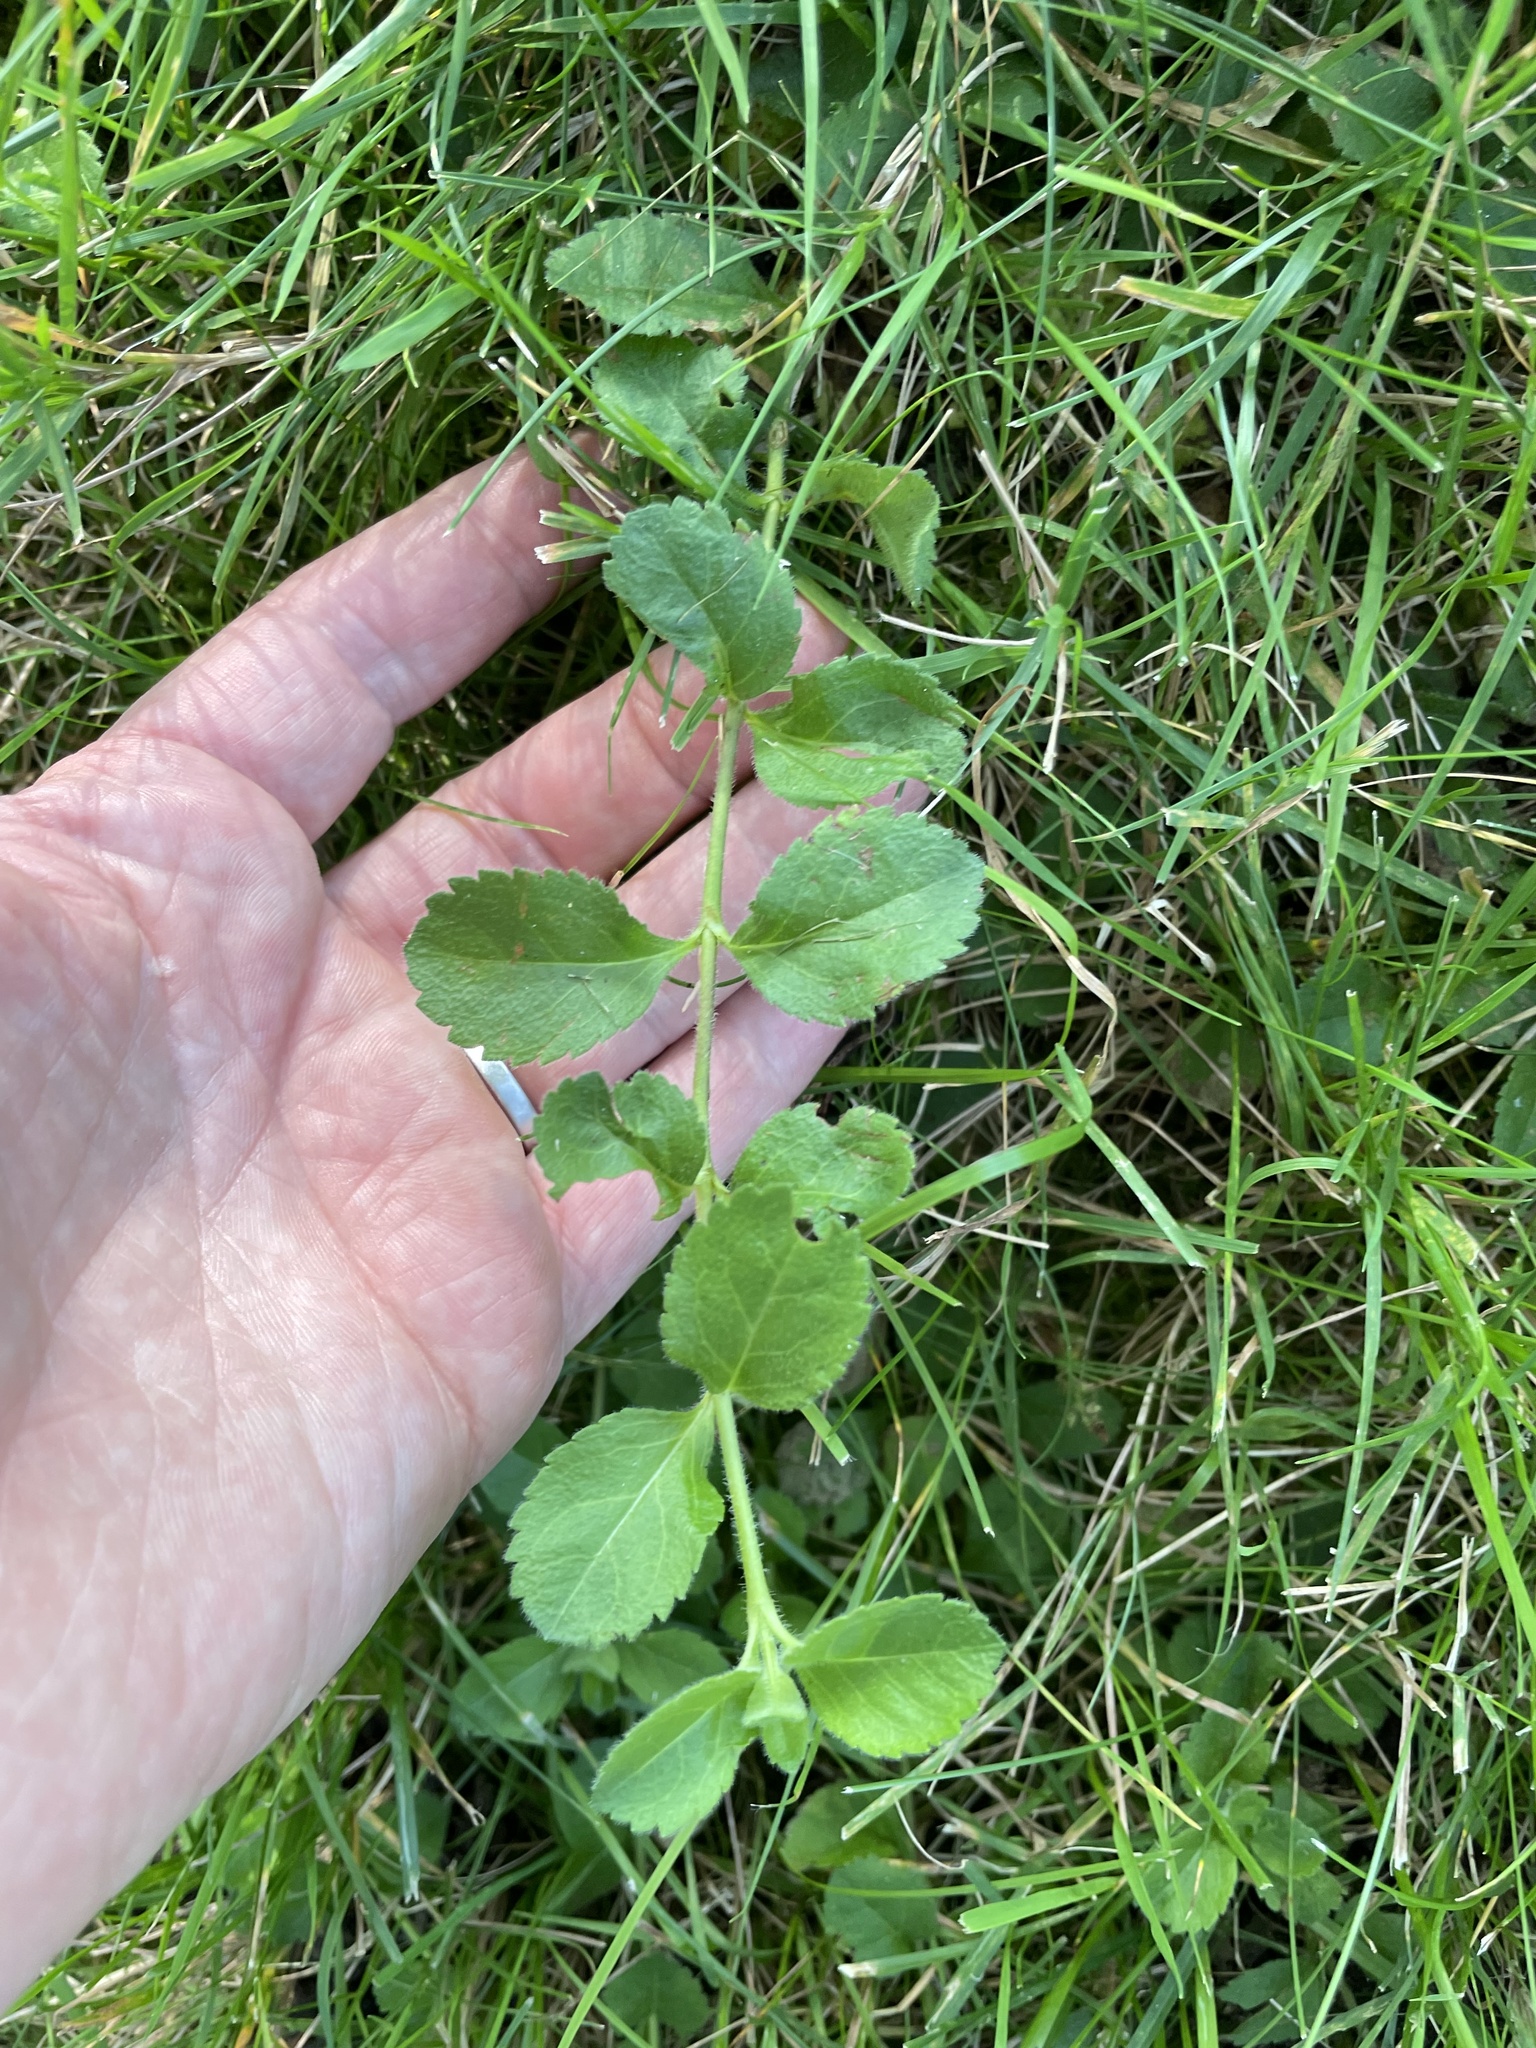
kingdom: Plantae
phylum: Tracheophyta
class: Magnoliopsida
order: Lamiales
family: Plantaginaceae
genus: Veronica
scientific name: Veronica officinalis
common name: Common speedwell
